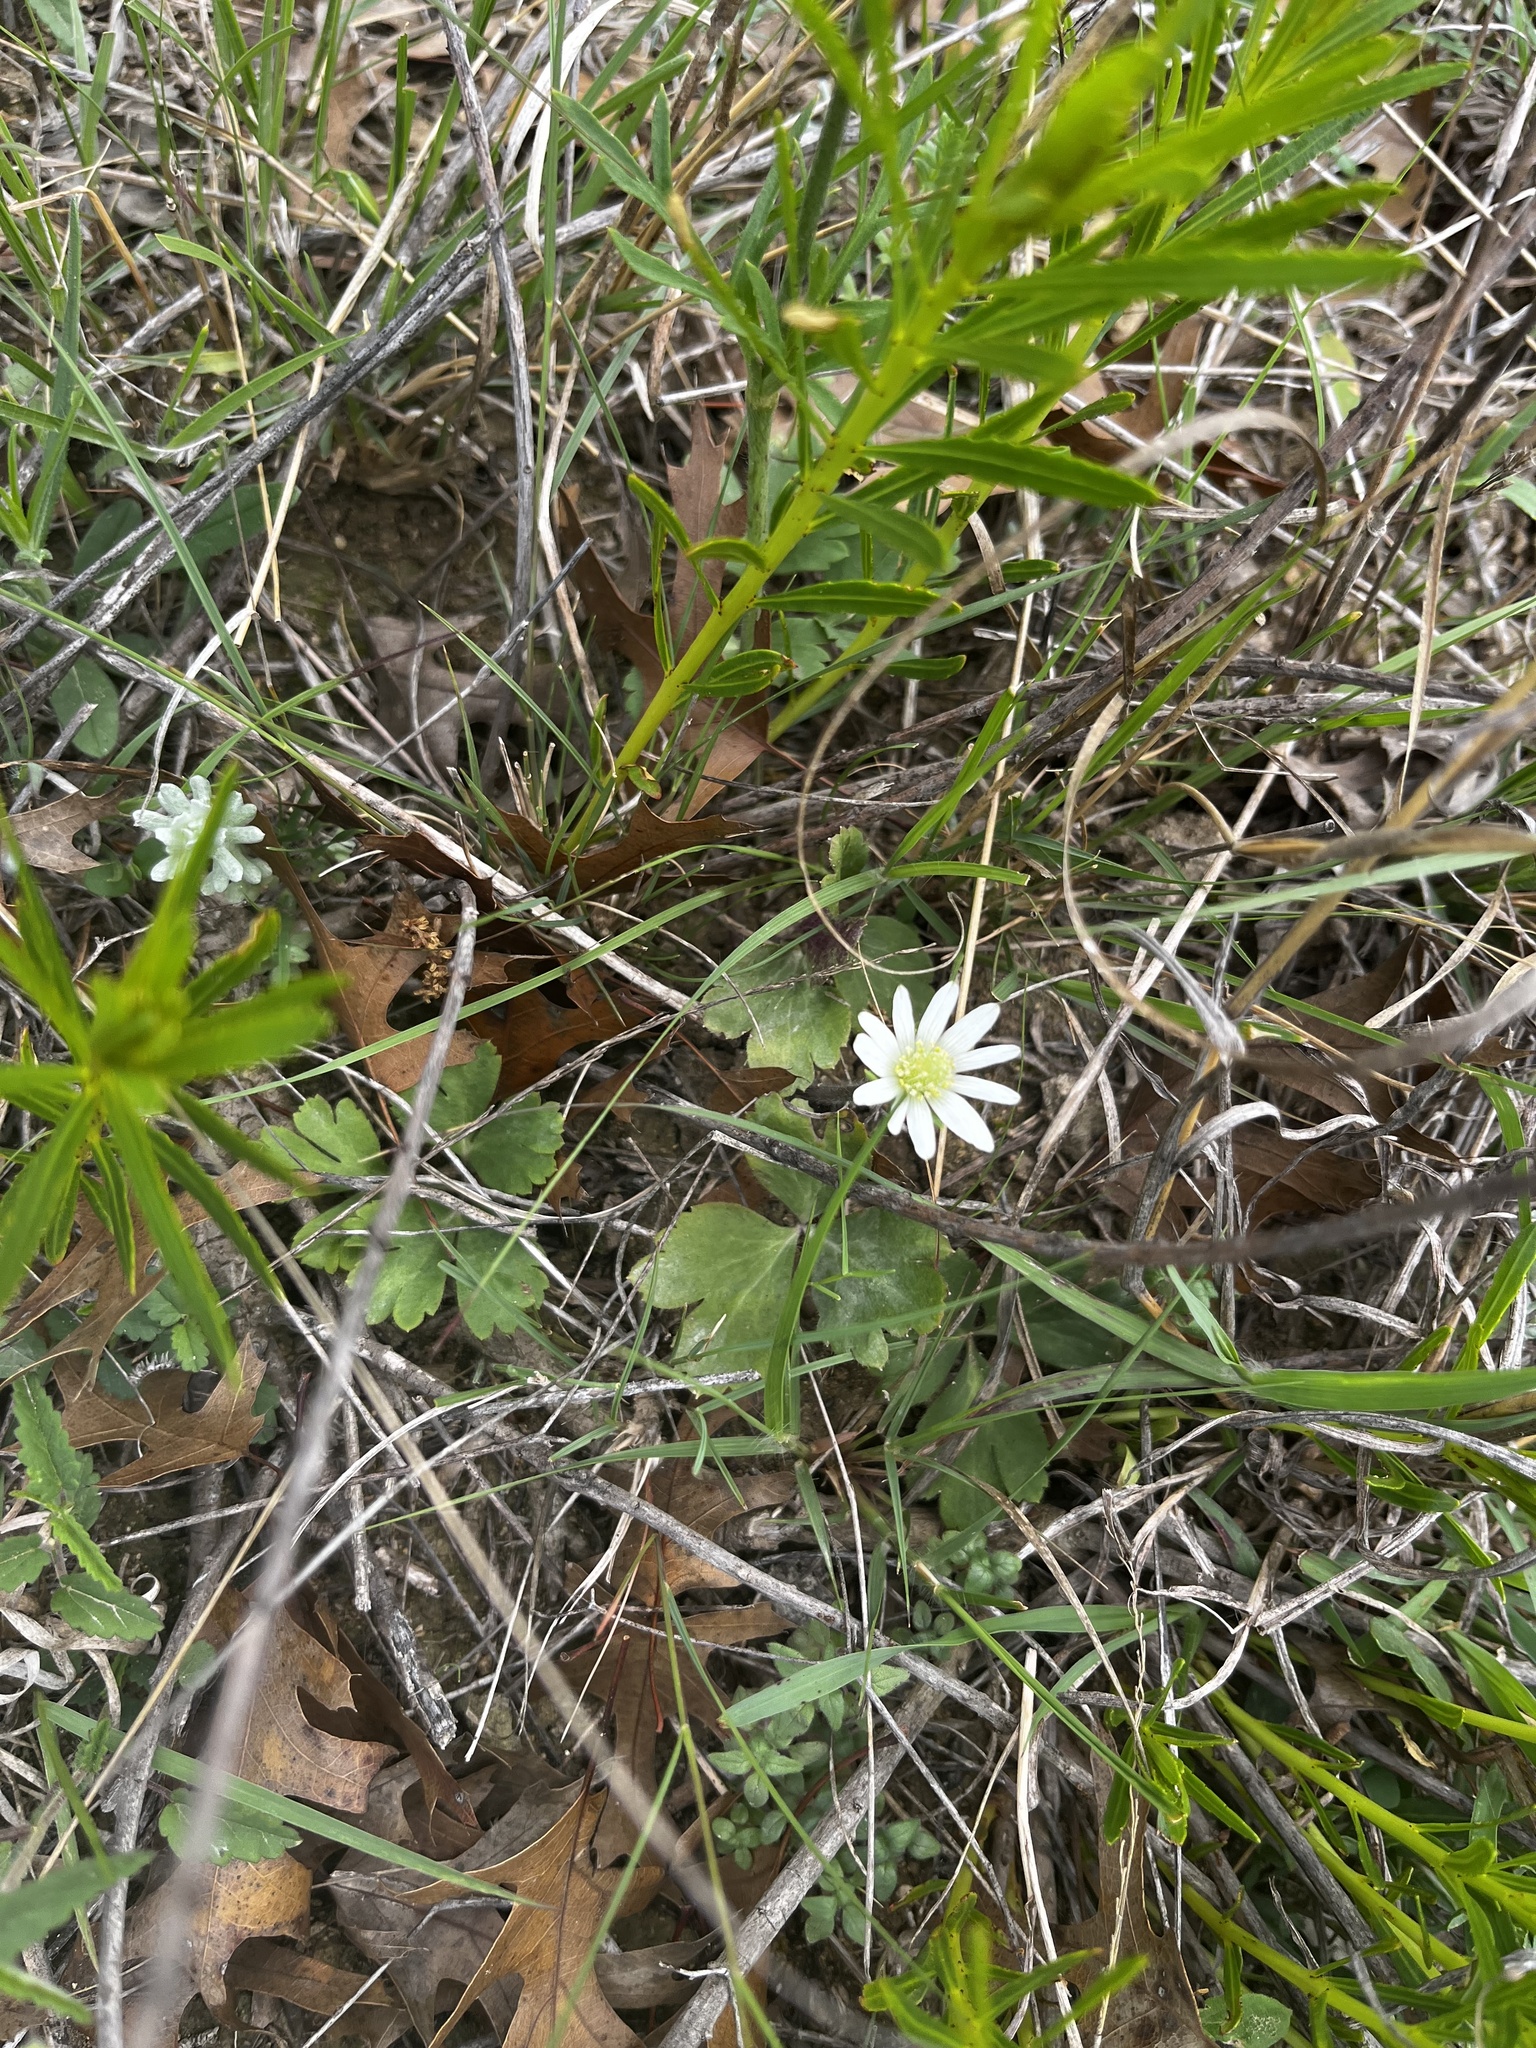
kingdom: Plantae
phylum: Tracheophyta
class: Magnoliopsida
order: Ranunculales
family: Ranunculaceae
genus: Anemone
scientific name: Anemone berlandieri
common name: Ten-petal anemone
